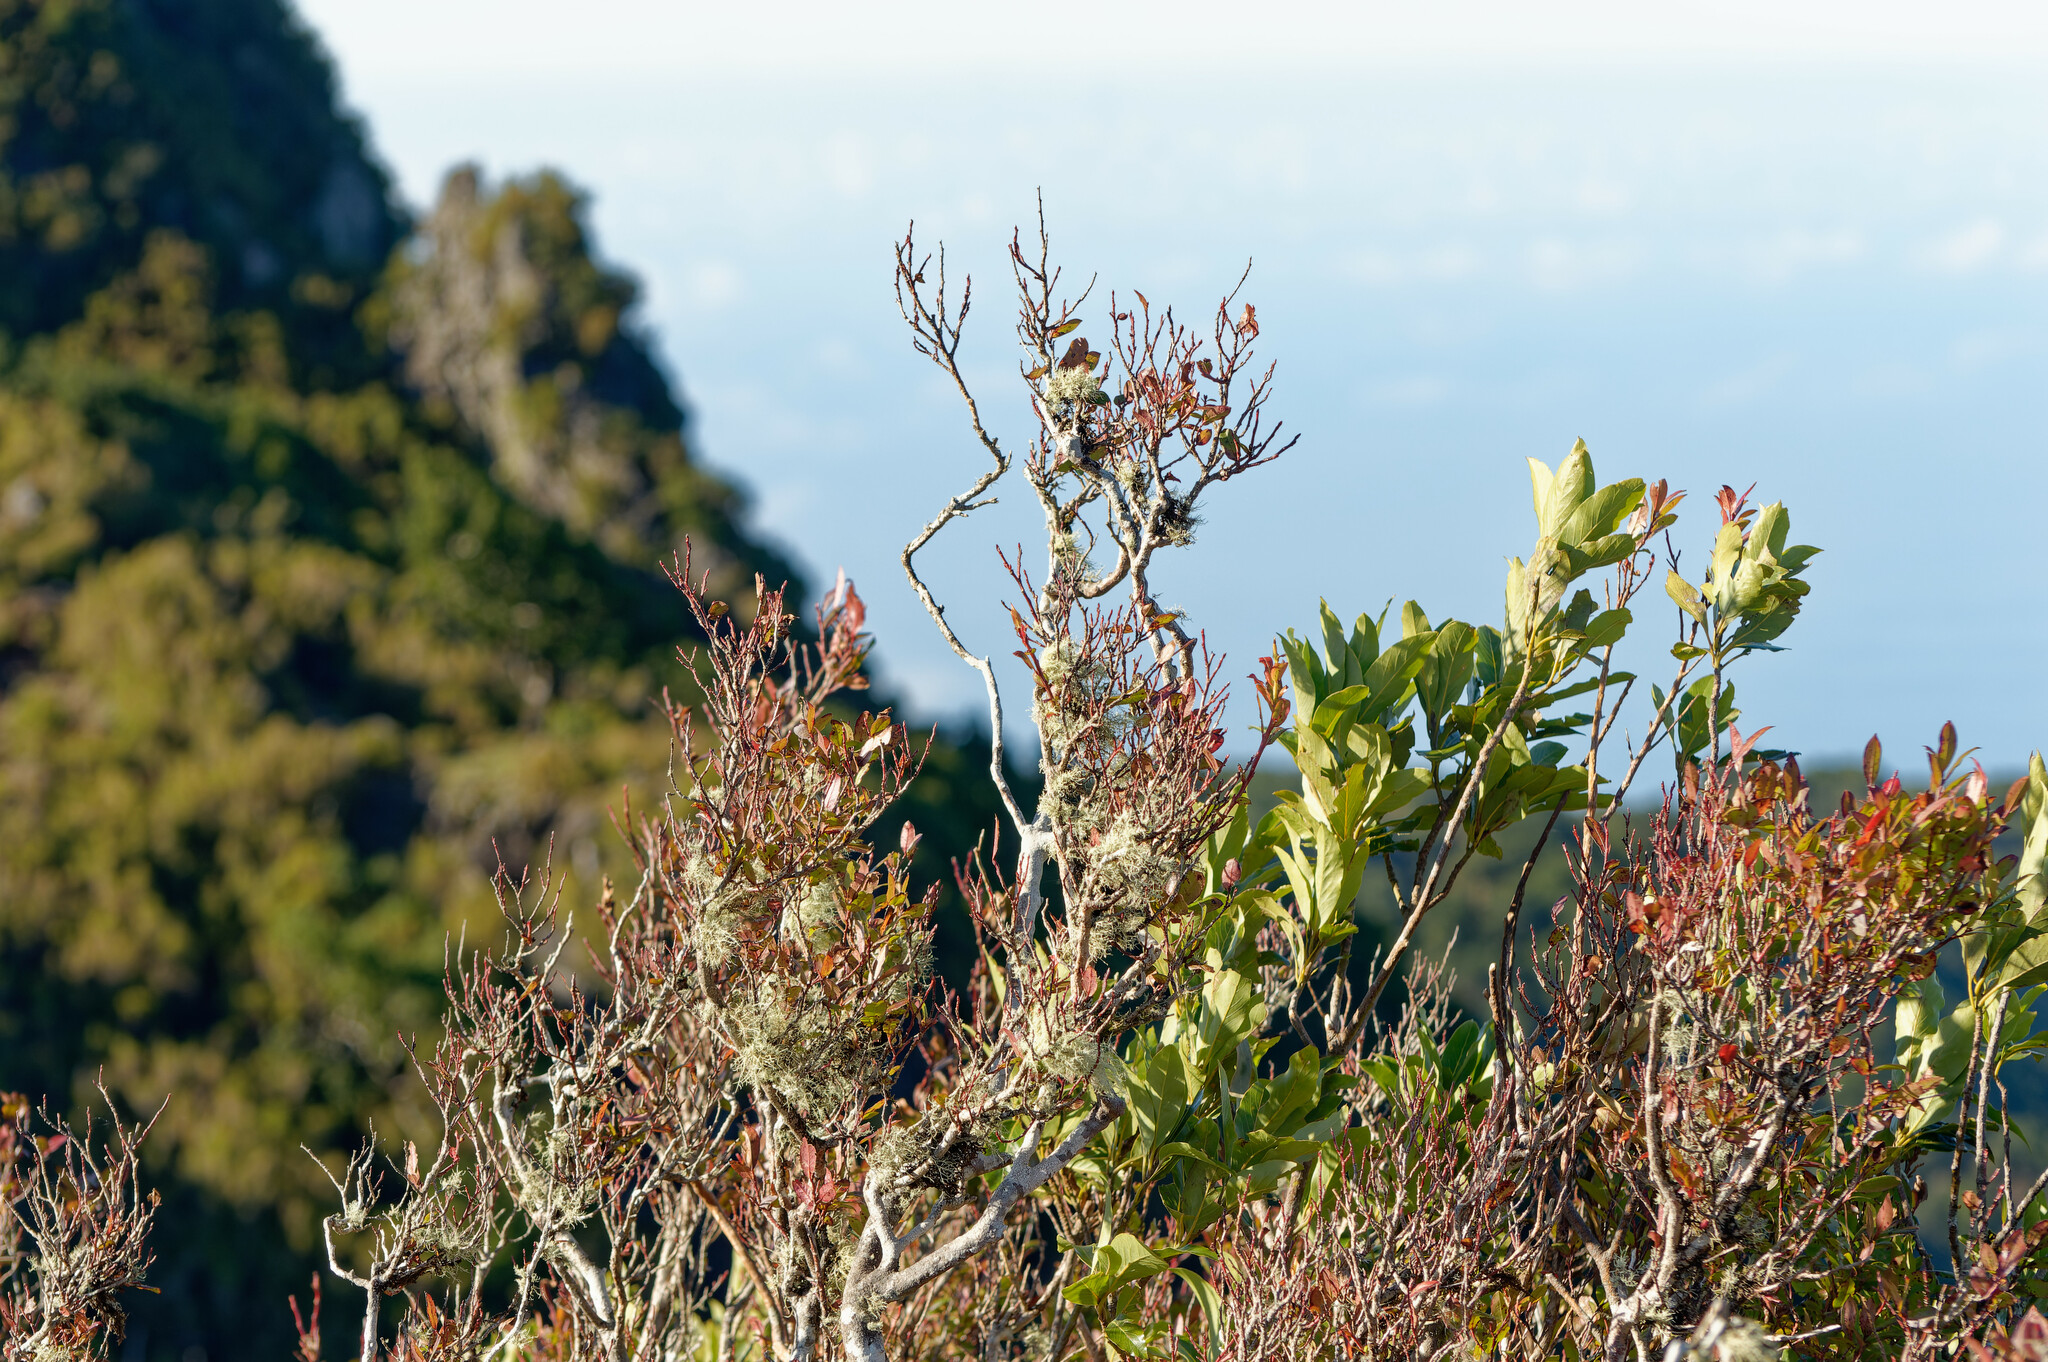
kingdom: Plantae
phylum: Tracheophyta
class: Magnoliopsida
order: Ericales
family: Ericaceae
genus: Vaccinium
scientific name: Vaccinium padifolium
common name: Madeiran blueberry
